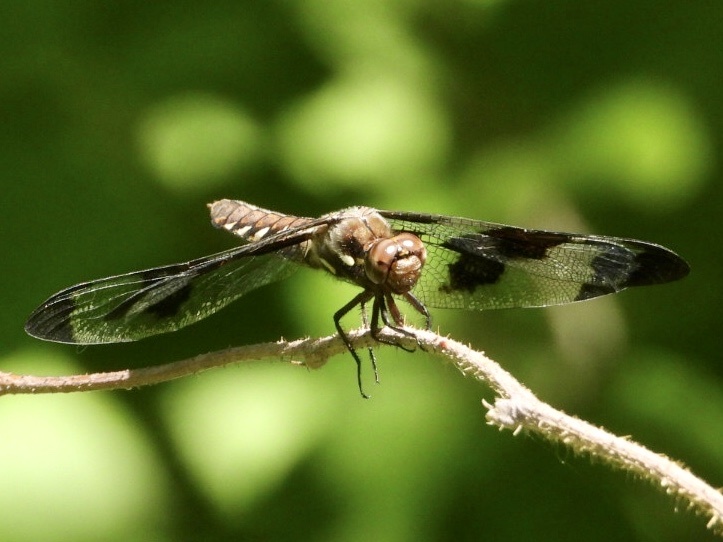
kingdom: Animalia
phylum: Arthropoda
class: Insecta
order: Odonata
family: Libellulidae
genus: Plathemis
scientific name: Plathemis lydia
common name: Common whitetail
